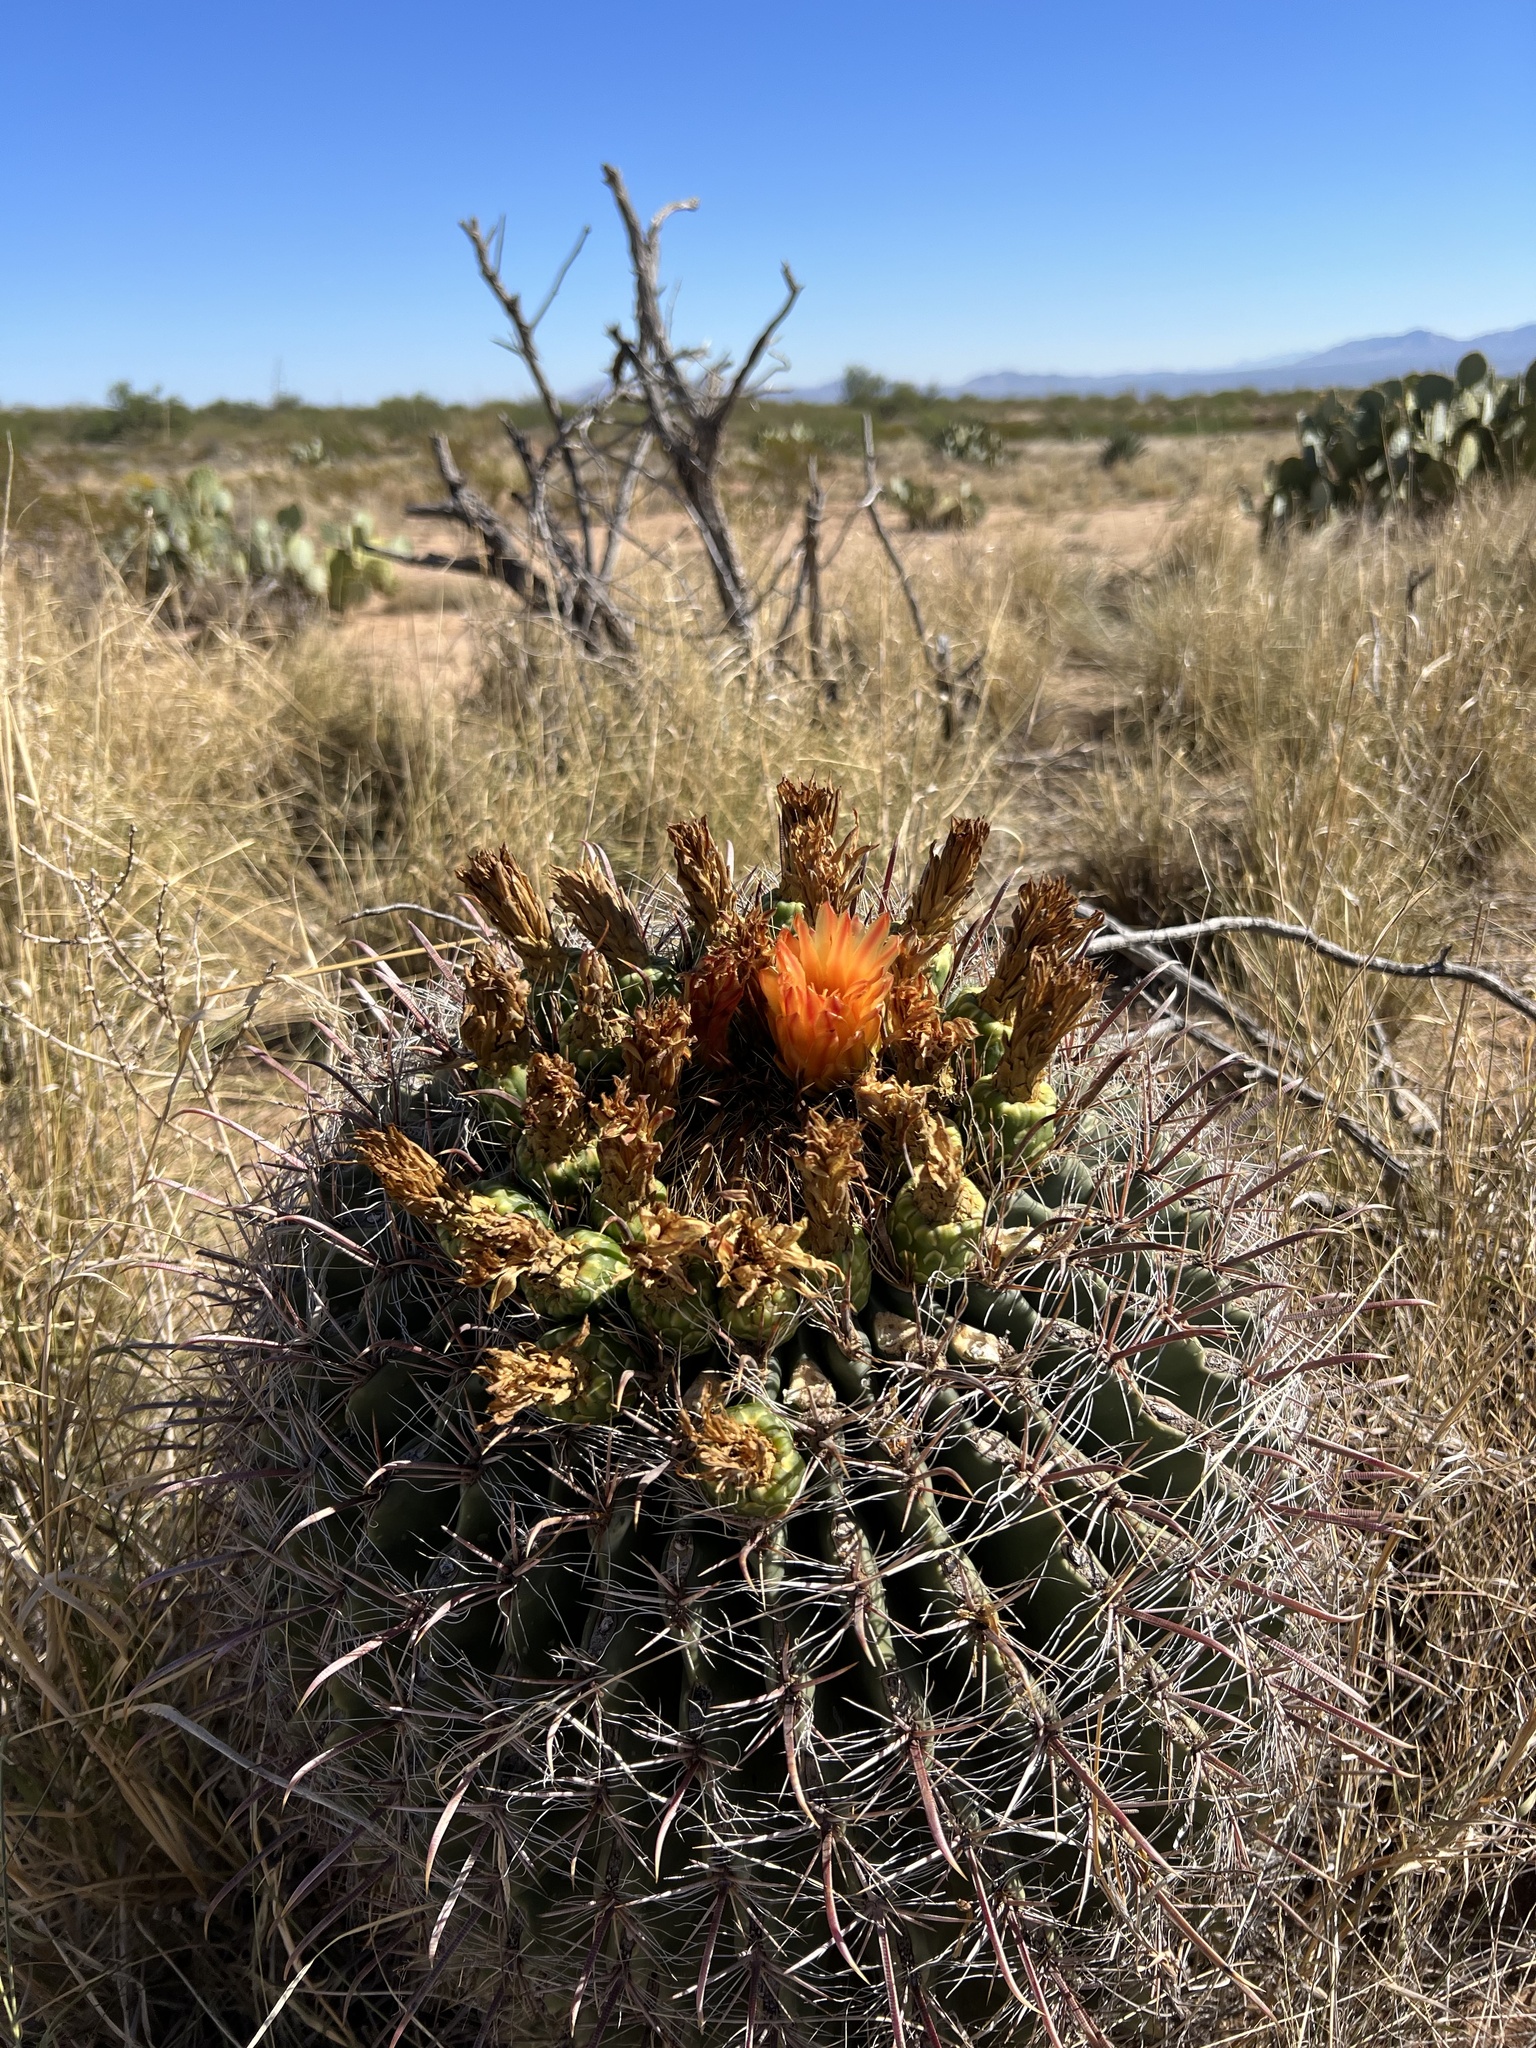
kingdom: Plantae
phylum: Tracheophyta
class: Magnoliopsida
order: Caryophyllales
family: Cactaceae
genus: Ferocactus
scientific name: Ferocactus wislizeni
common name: Candy barrel cactus
